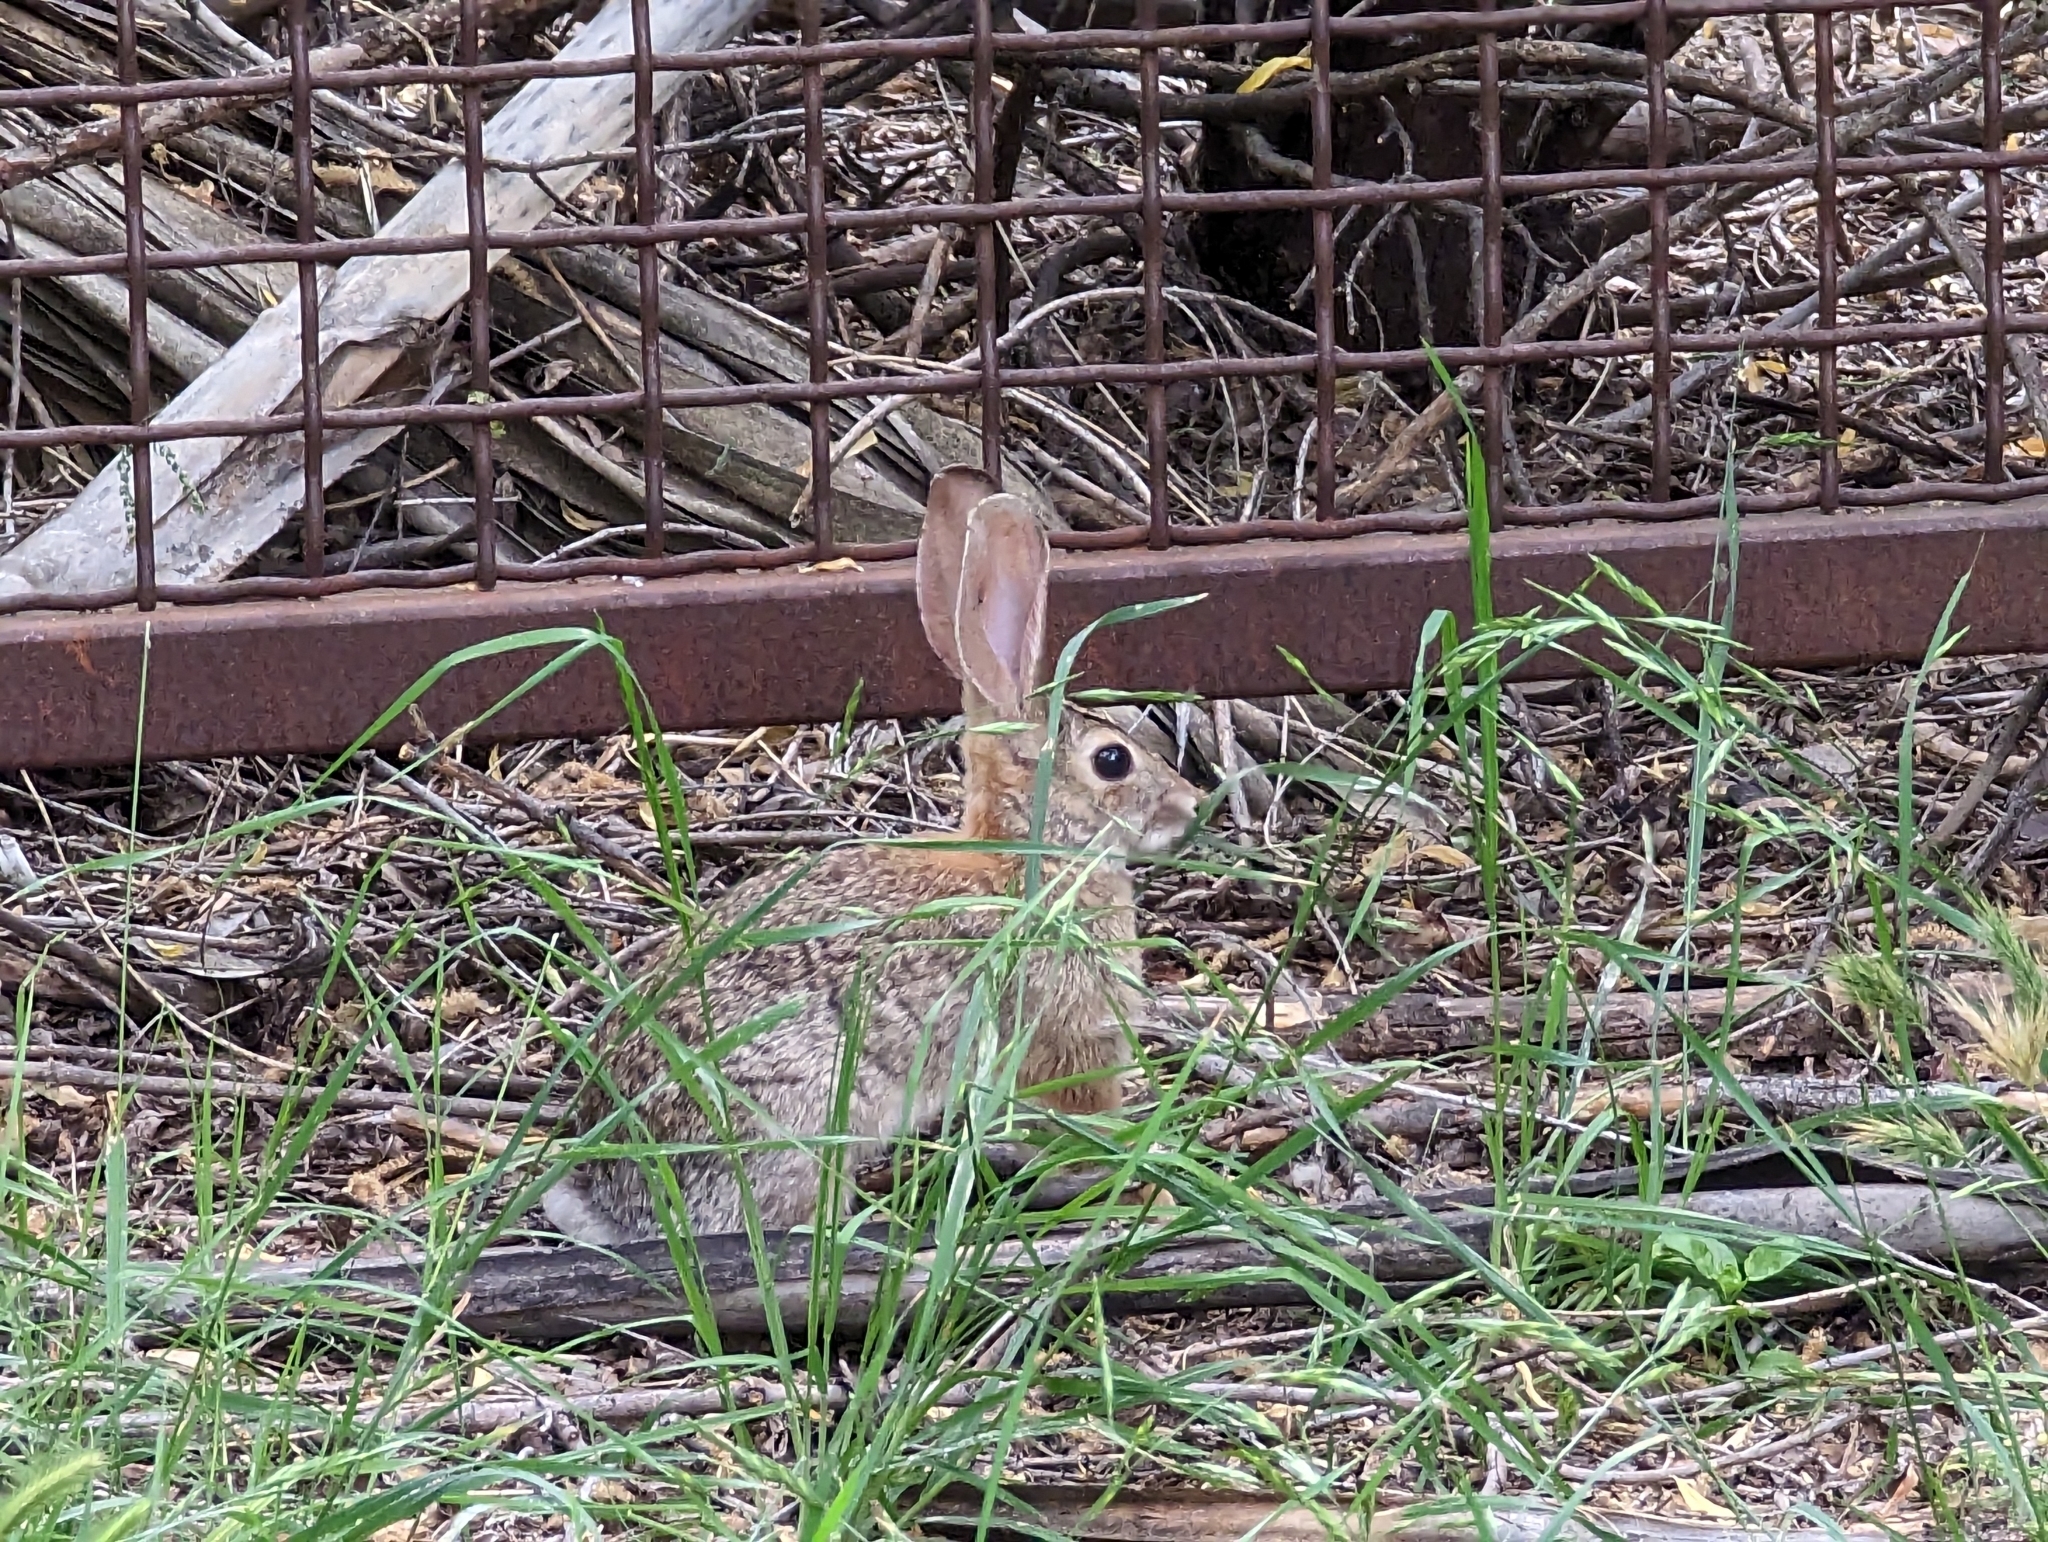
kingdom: Animalia
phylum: Chordata
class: Mammalia
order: Lagomorpha
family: Leporidae
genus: Sylvilagus
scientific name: Sylvilagus audubonii
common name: Desert cottontail
